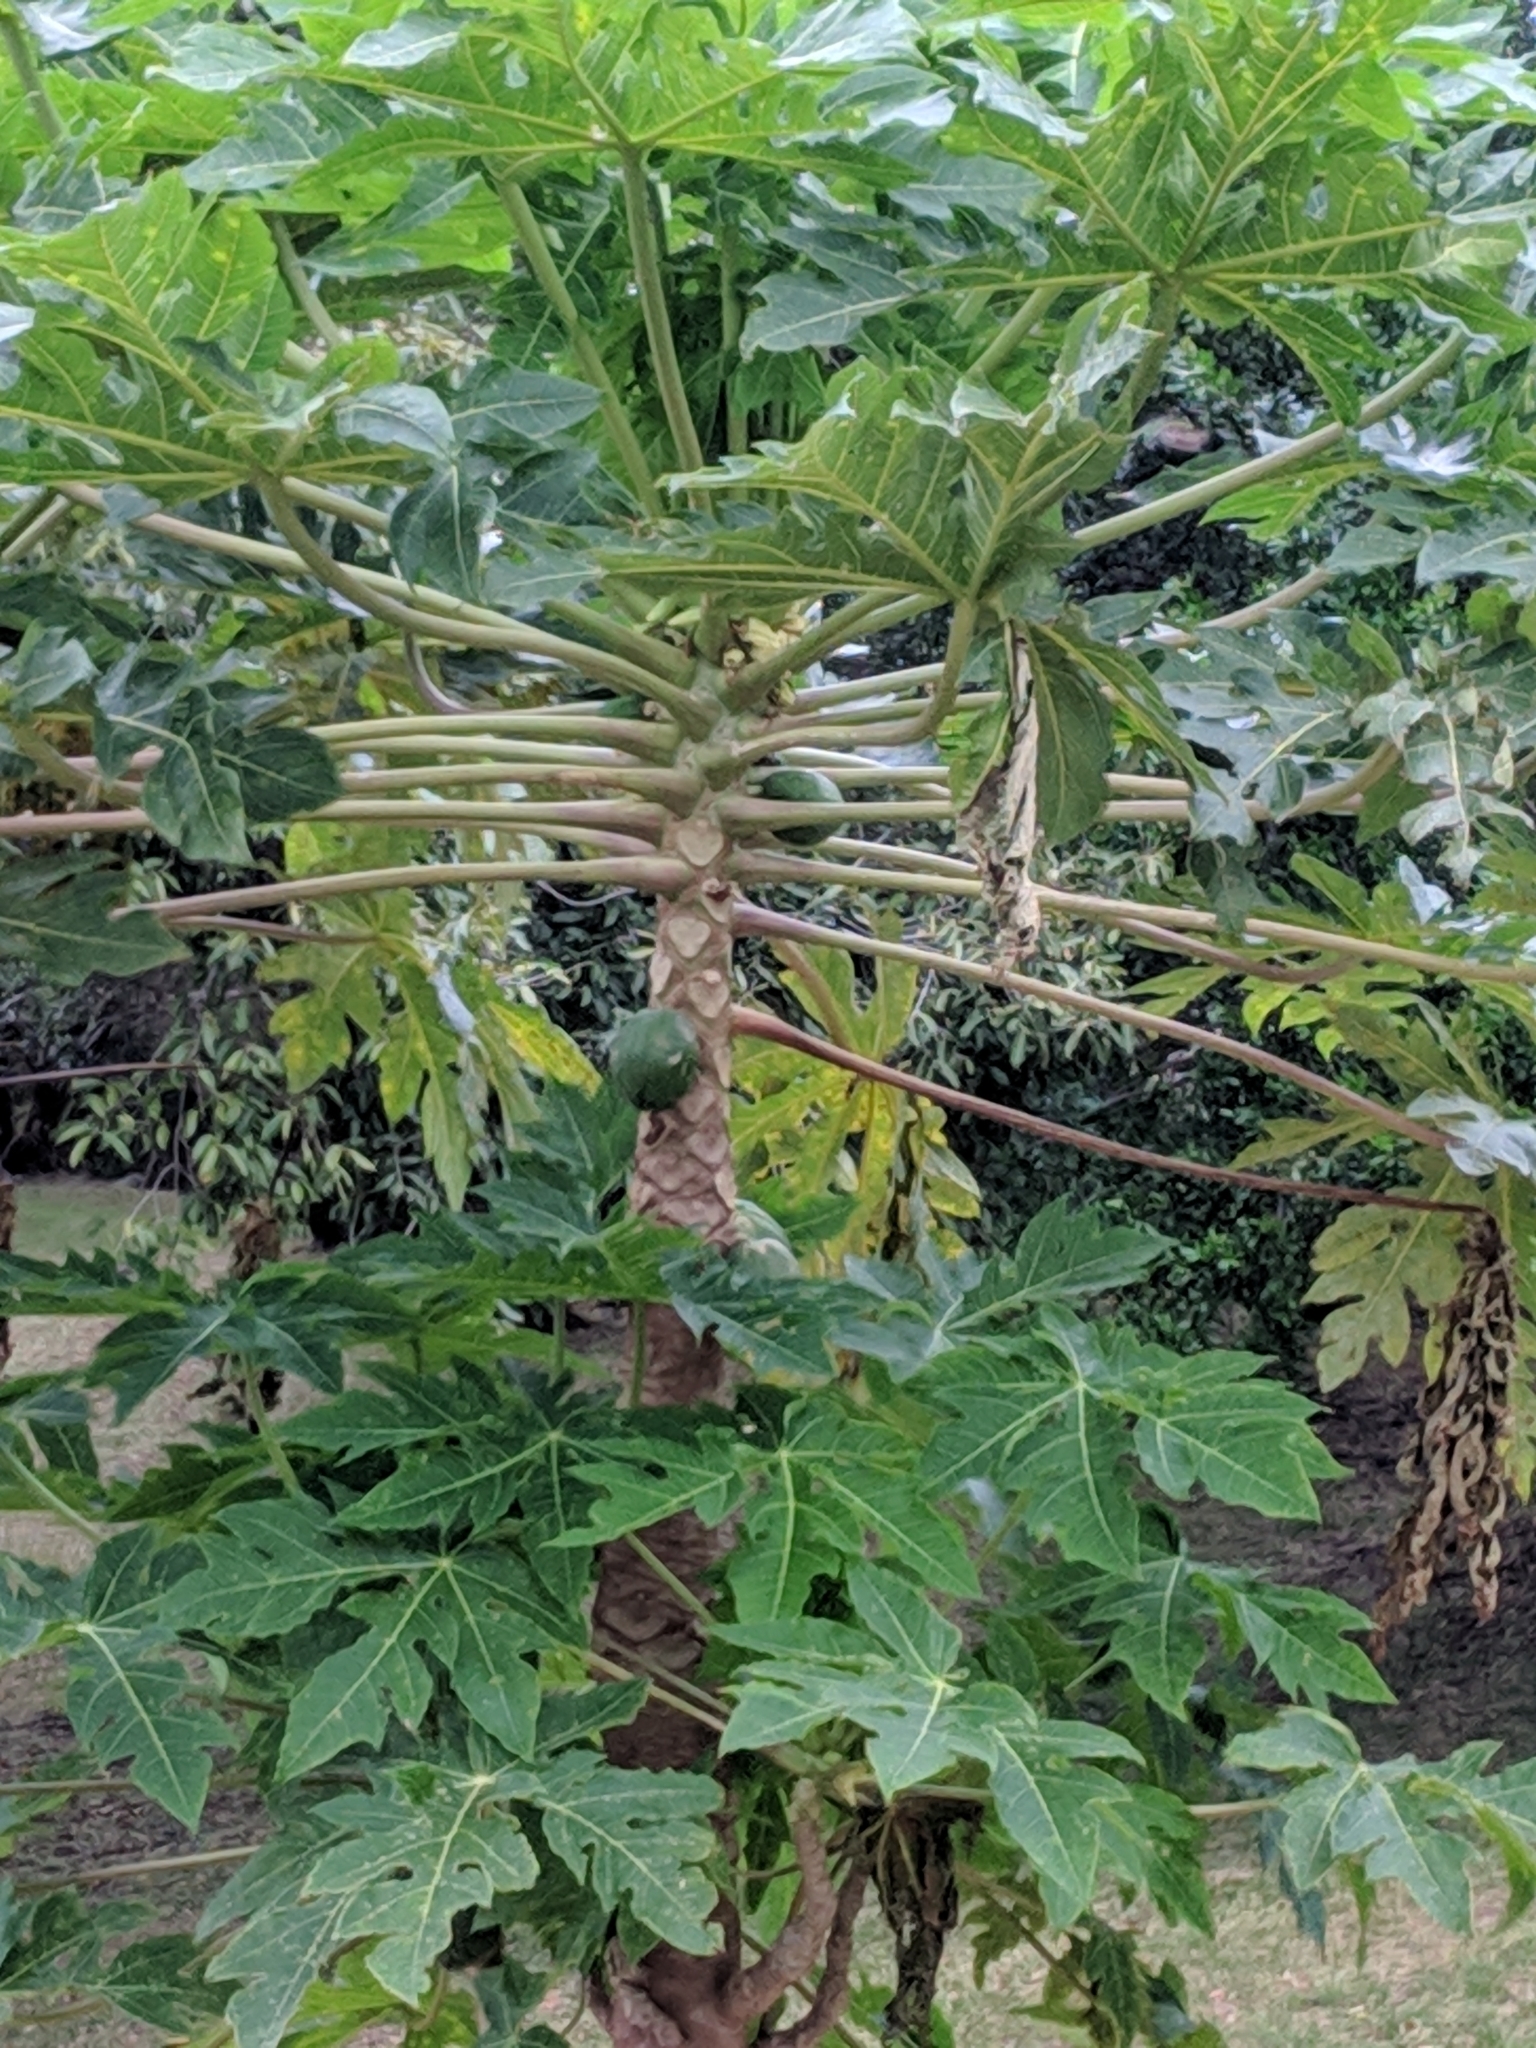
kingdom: Plantae
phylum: Tracheophyta
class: Magnoliopsida
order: Brassicales
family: Caricaceae
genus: Carica
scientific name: Carica papaya
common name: Papaya
